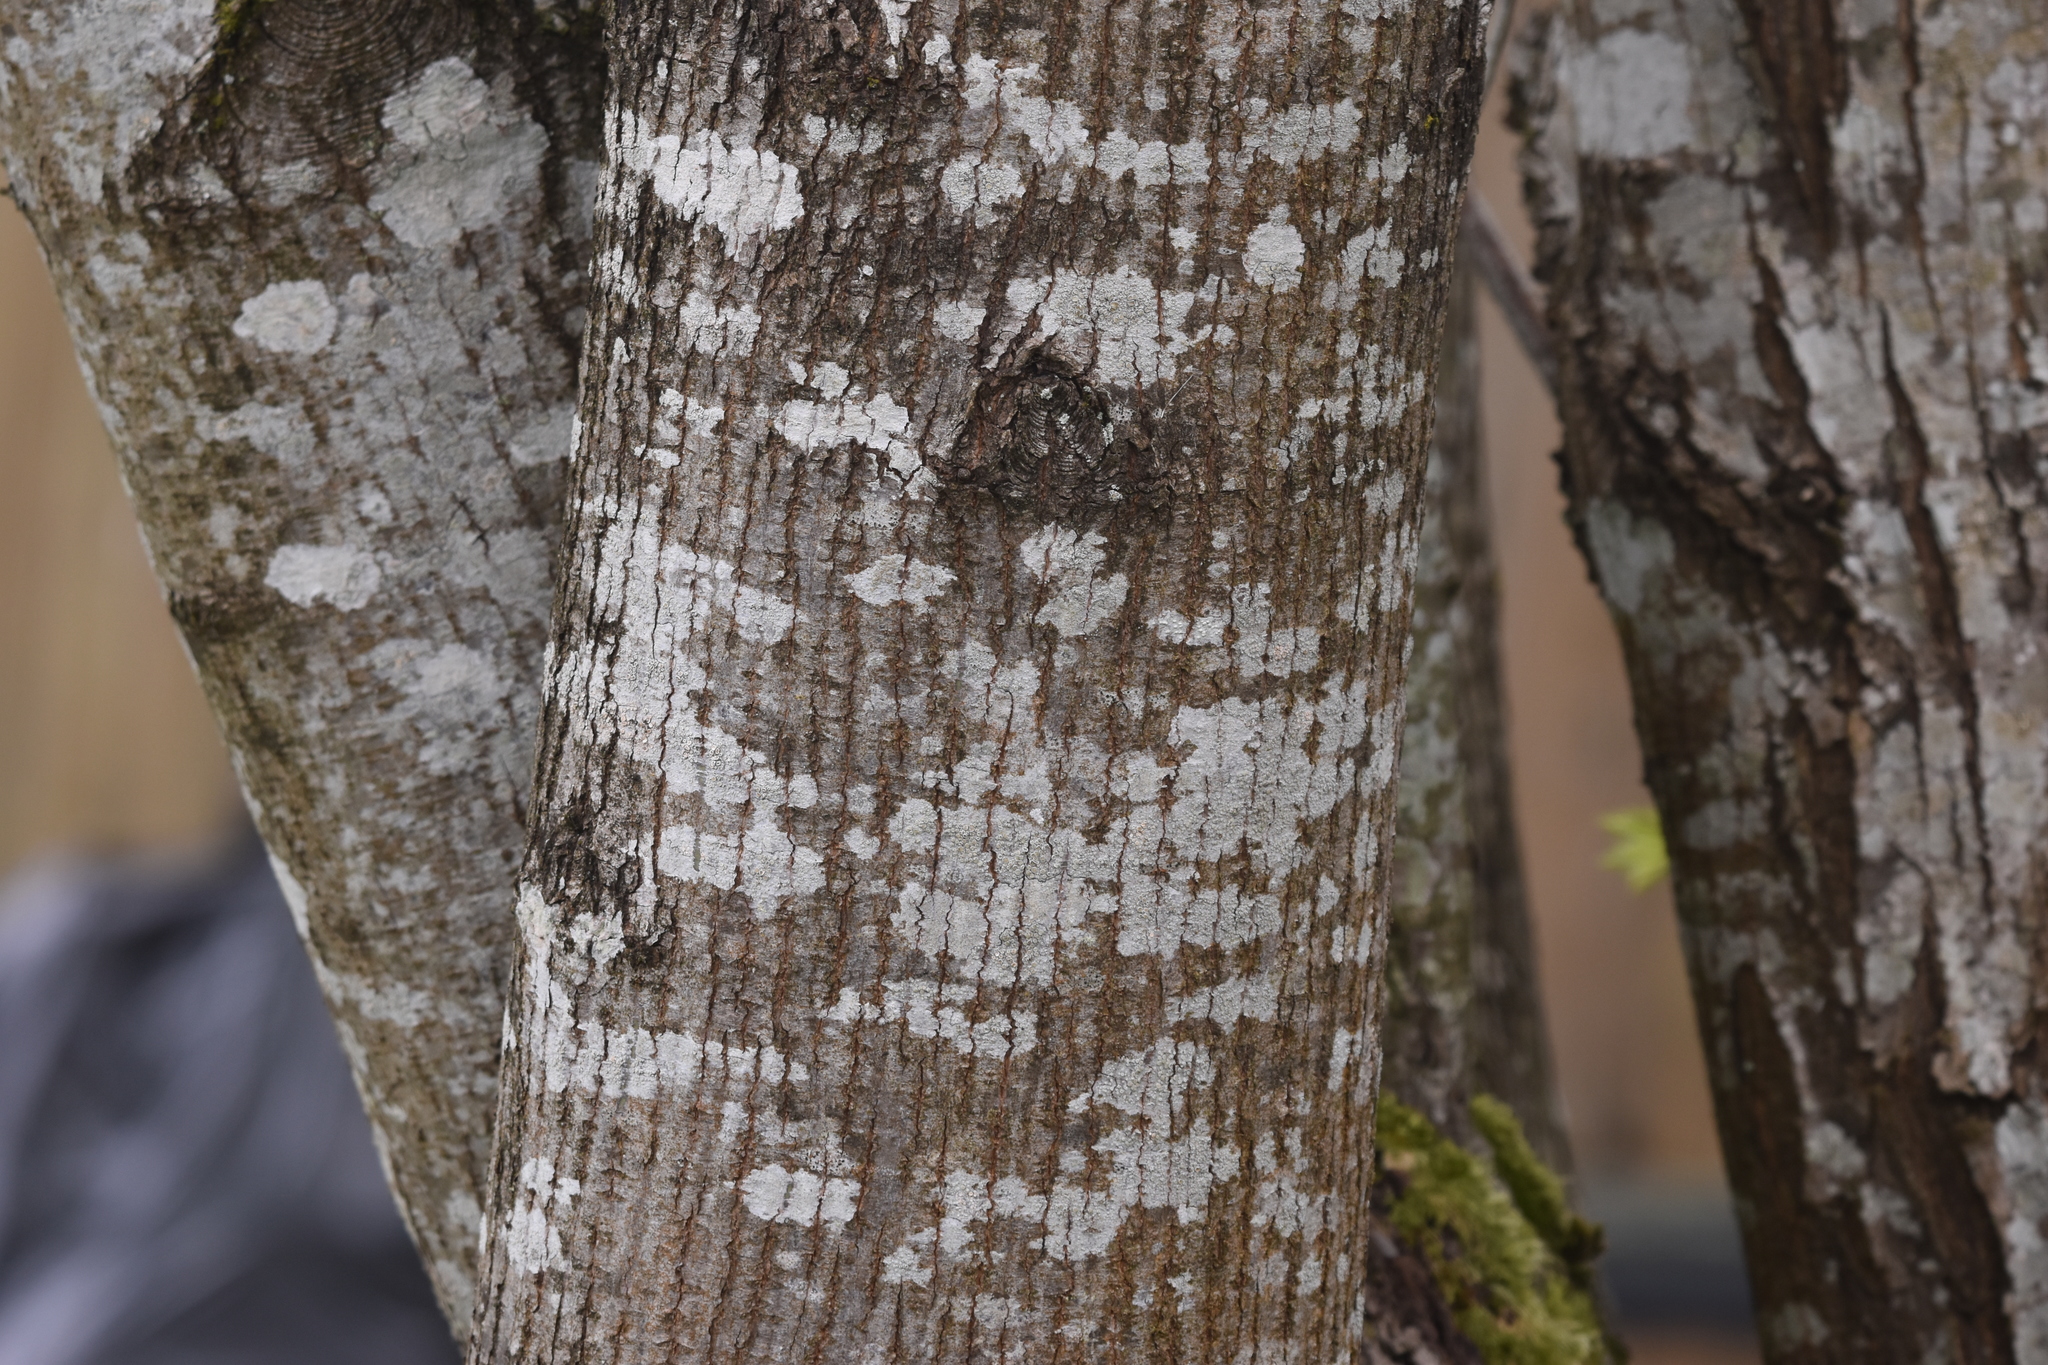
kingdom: Plantae
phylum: Tracheophyta
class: Magnoliopsida
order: Sapindales
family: Sapindaceae
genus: Acer
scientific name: Acer macrophyllum
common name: Oregon maple
